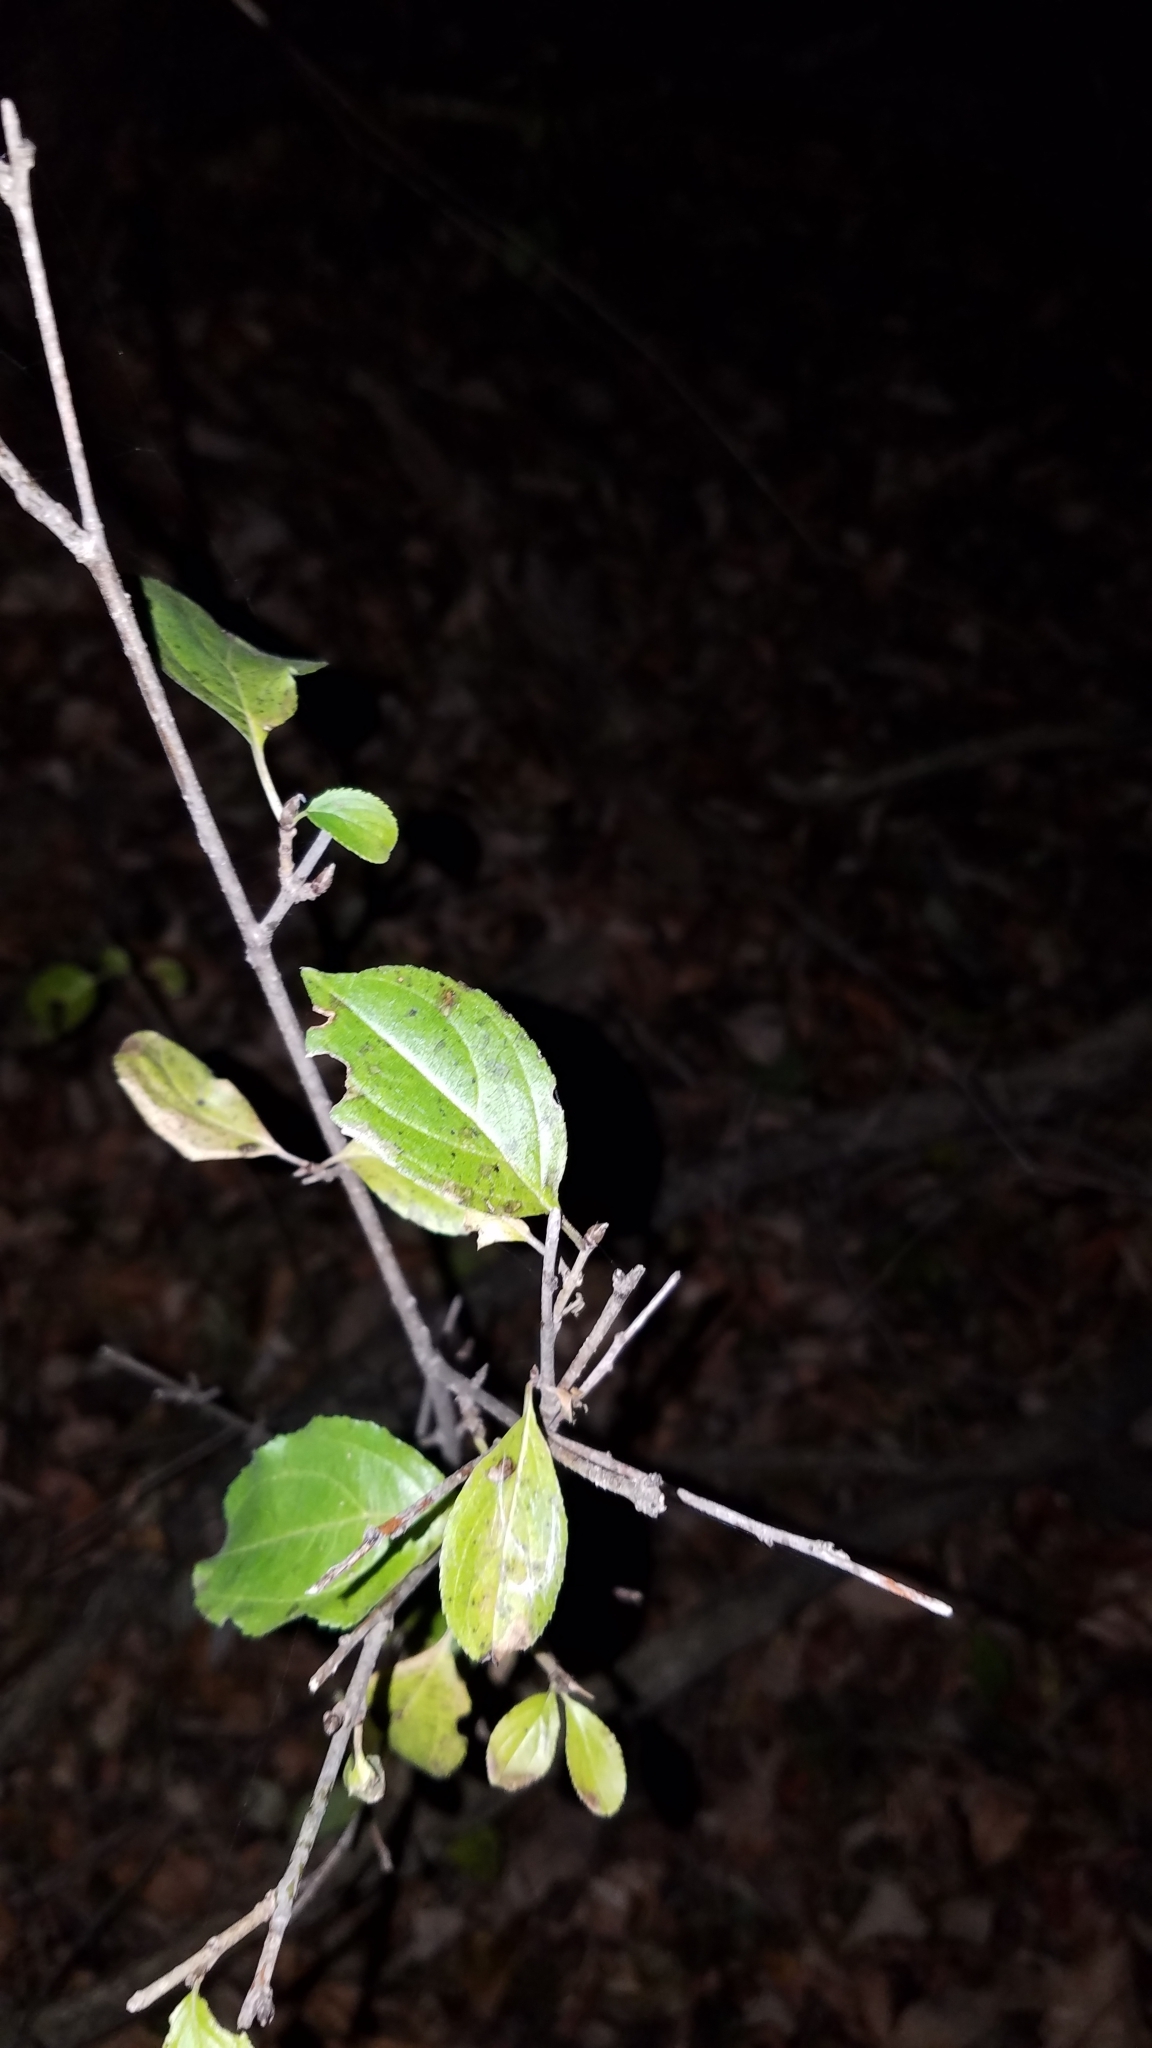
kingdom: Plantae
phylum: Tracheophyta
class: Magnoliopsida
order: Rosales
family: Rhamnaceae
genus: Rhamnus
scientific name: Rhamnus cathartica
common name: Common buckthorn
